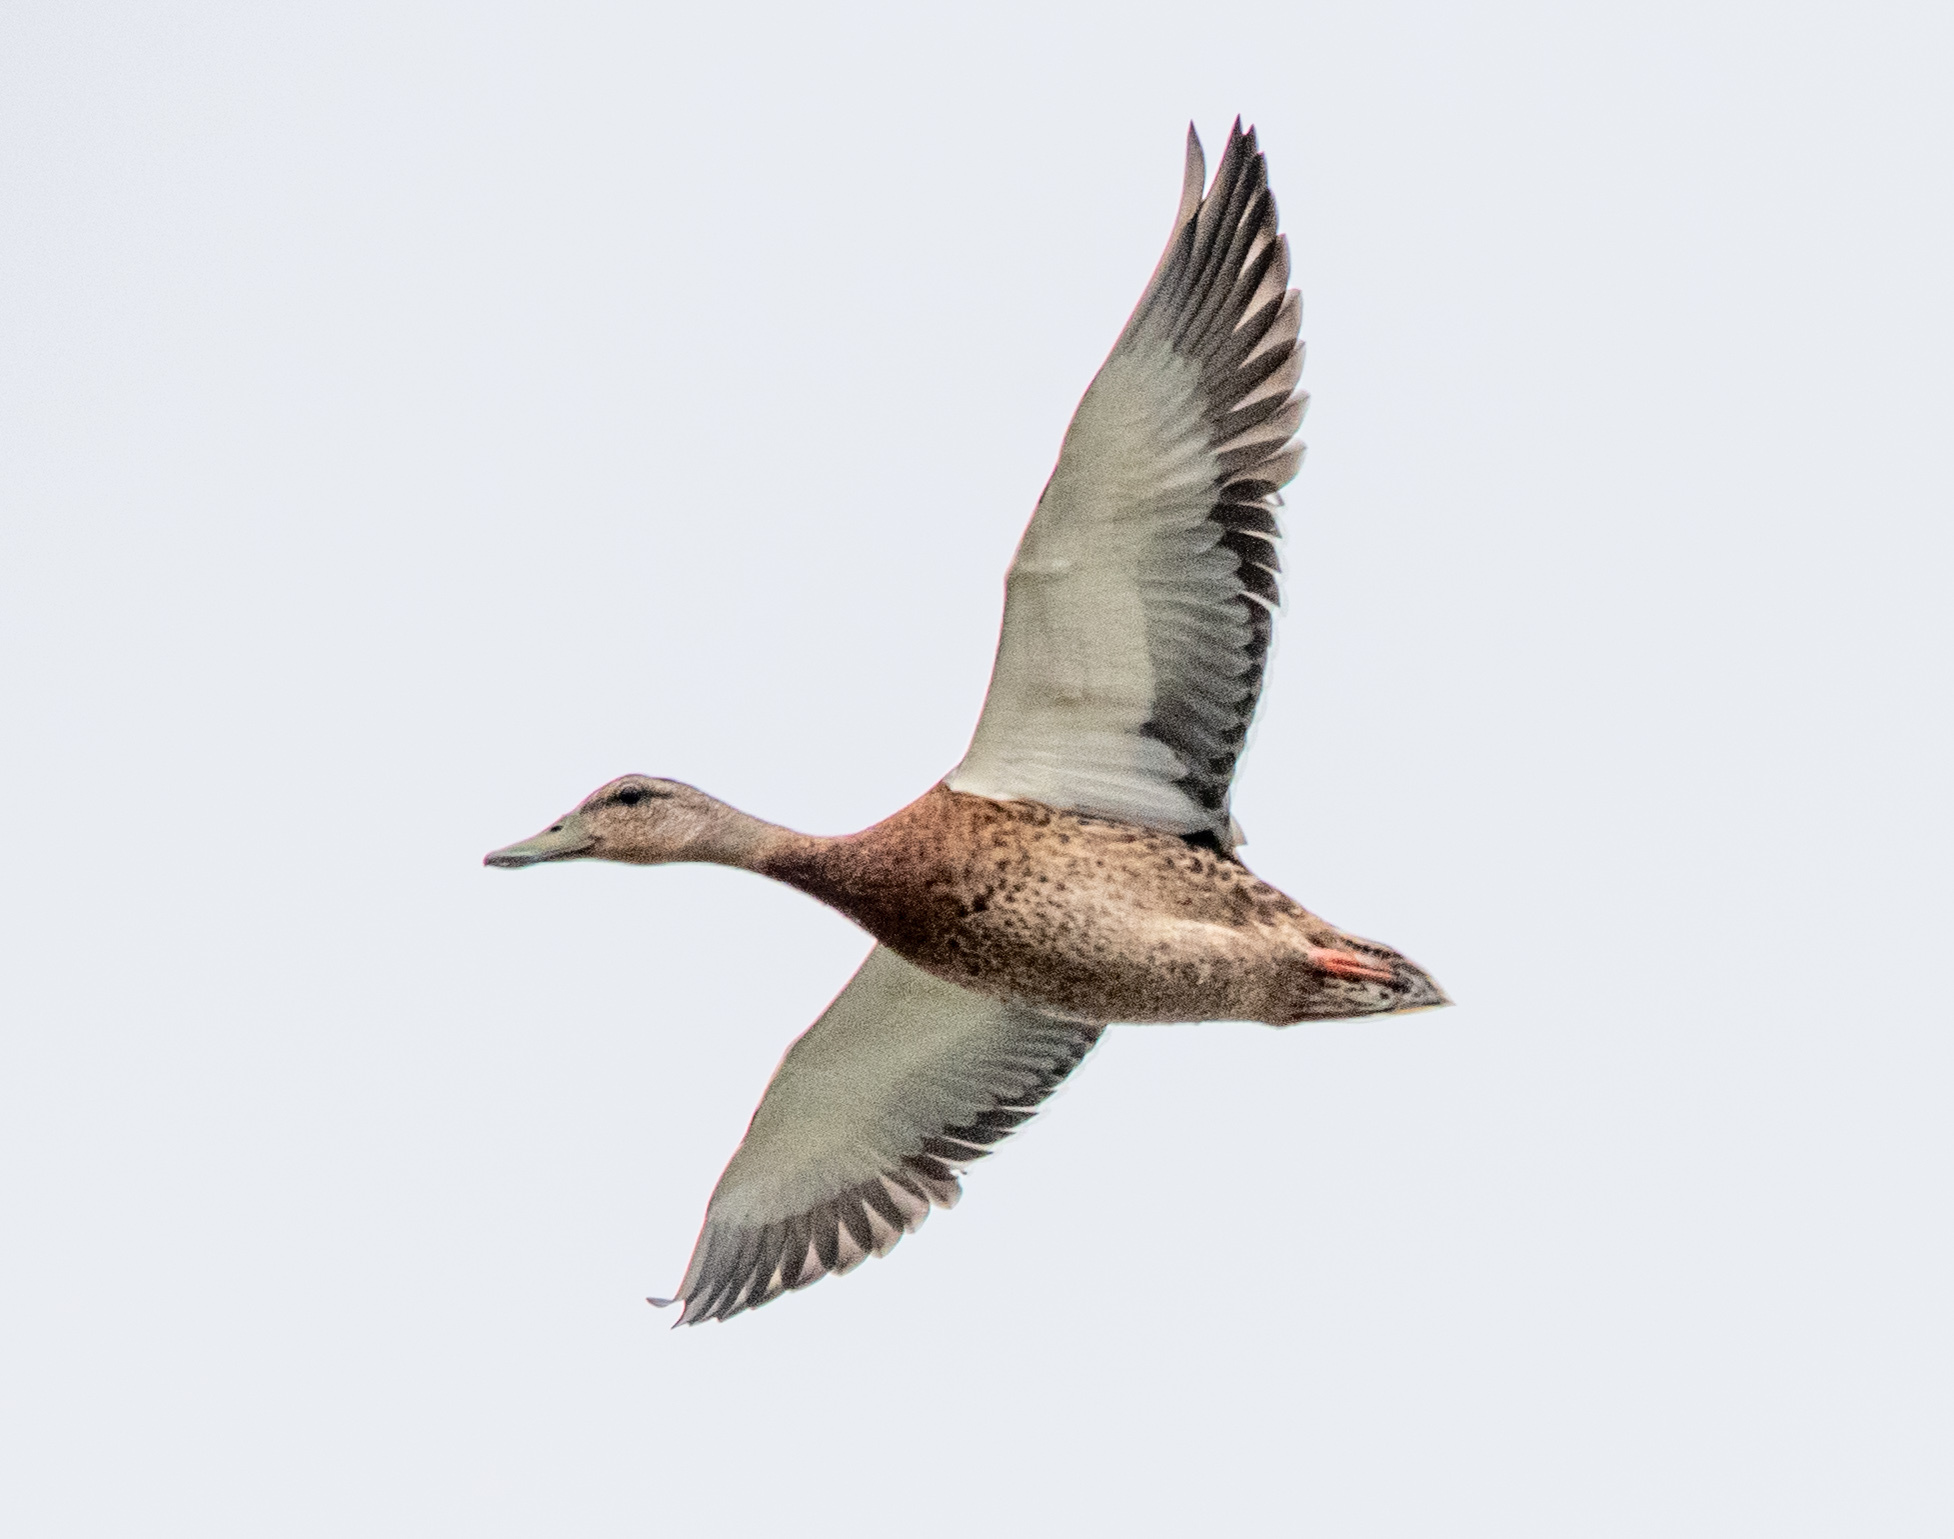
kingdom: Animalia
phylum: Chordata
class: Aves
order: Anseriformes
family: Anatidae
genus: Anas
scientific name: Anas platyrhynchos
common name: Mallard
